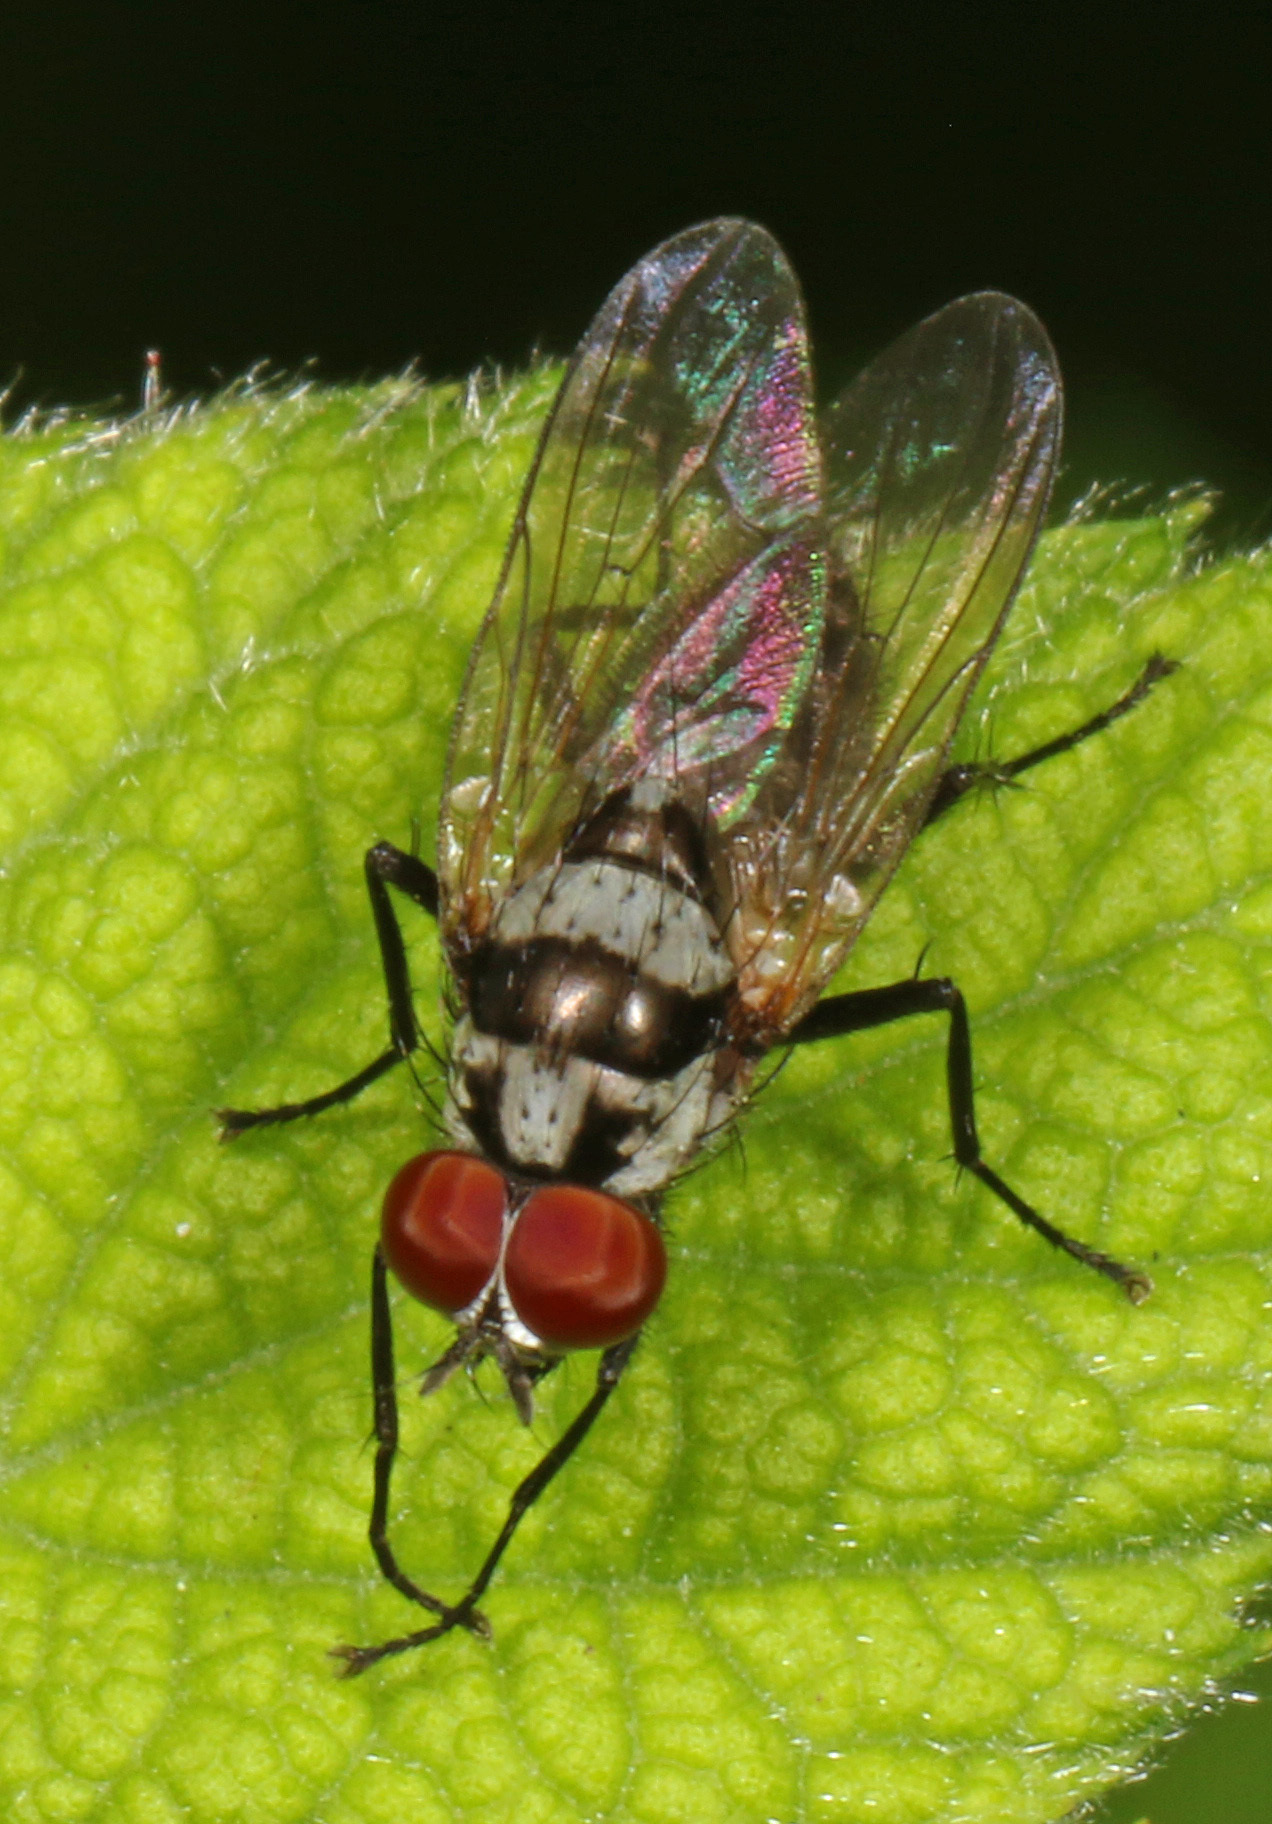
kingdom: Animalia
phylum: Arthropoda
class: Insecta
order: Diptera
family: Anthomyiidae
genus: Anthomyia
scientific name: Anthomyia oculifera
